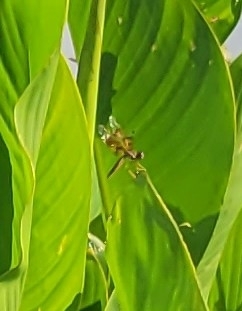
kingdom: Animalia
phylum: Arthropoda
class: Insecta
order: Odonata
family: Libellulidae
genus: Perithemis
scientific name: Perithemis tenera
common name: Eastern amberwing
